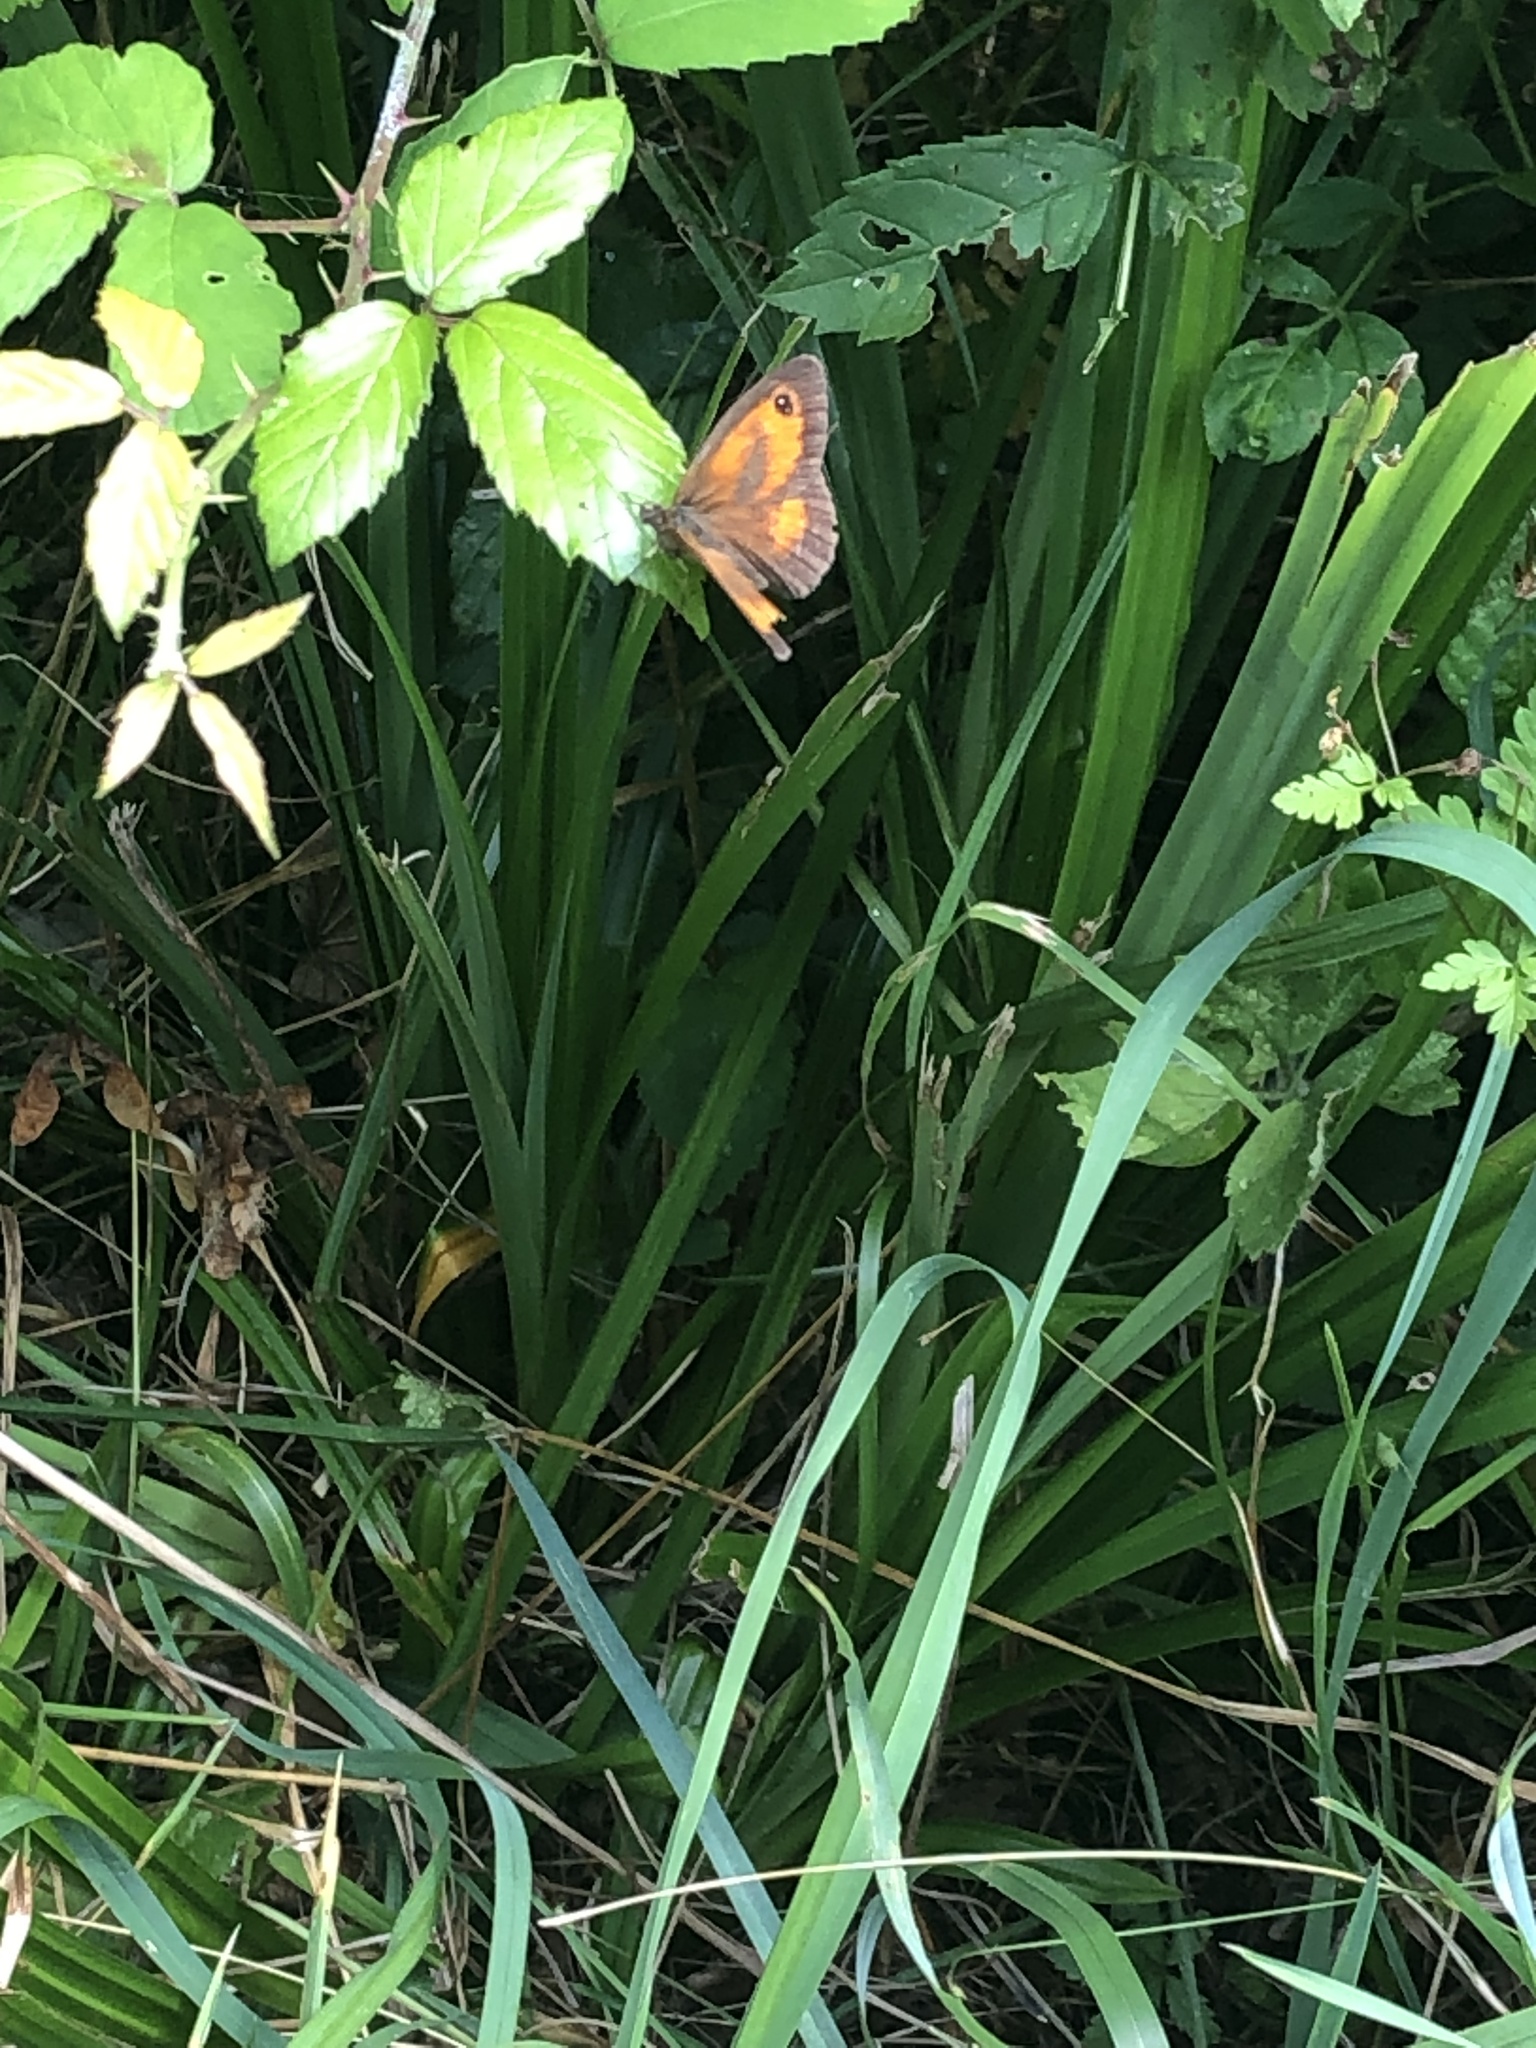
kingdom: Animalia
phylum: Arthropoda
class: Insecta
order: Lepidoptera
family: Nymphalidae
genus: Pyronia
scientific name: Pyronia tithonus
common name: Gatekeeper
